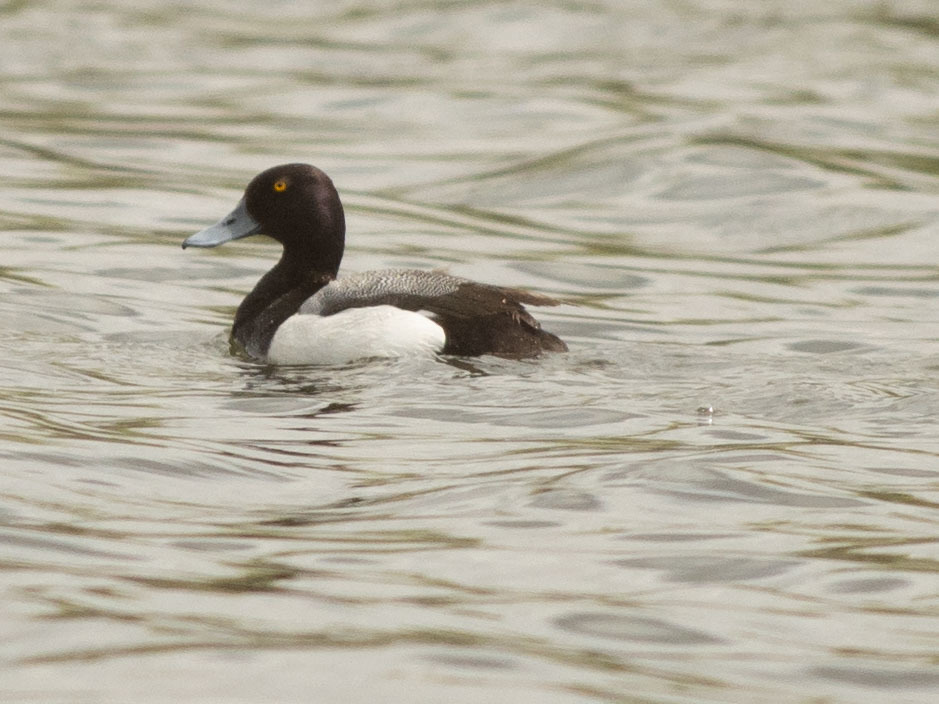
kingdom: Animalia
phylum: Chordata
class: Aves
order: Anseriformes
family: Anatidae
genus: Aythya
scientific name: Aythya affinis
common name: Lesser scaup
